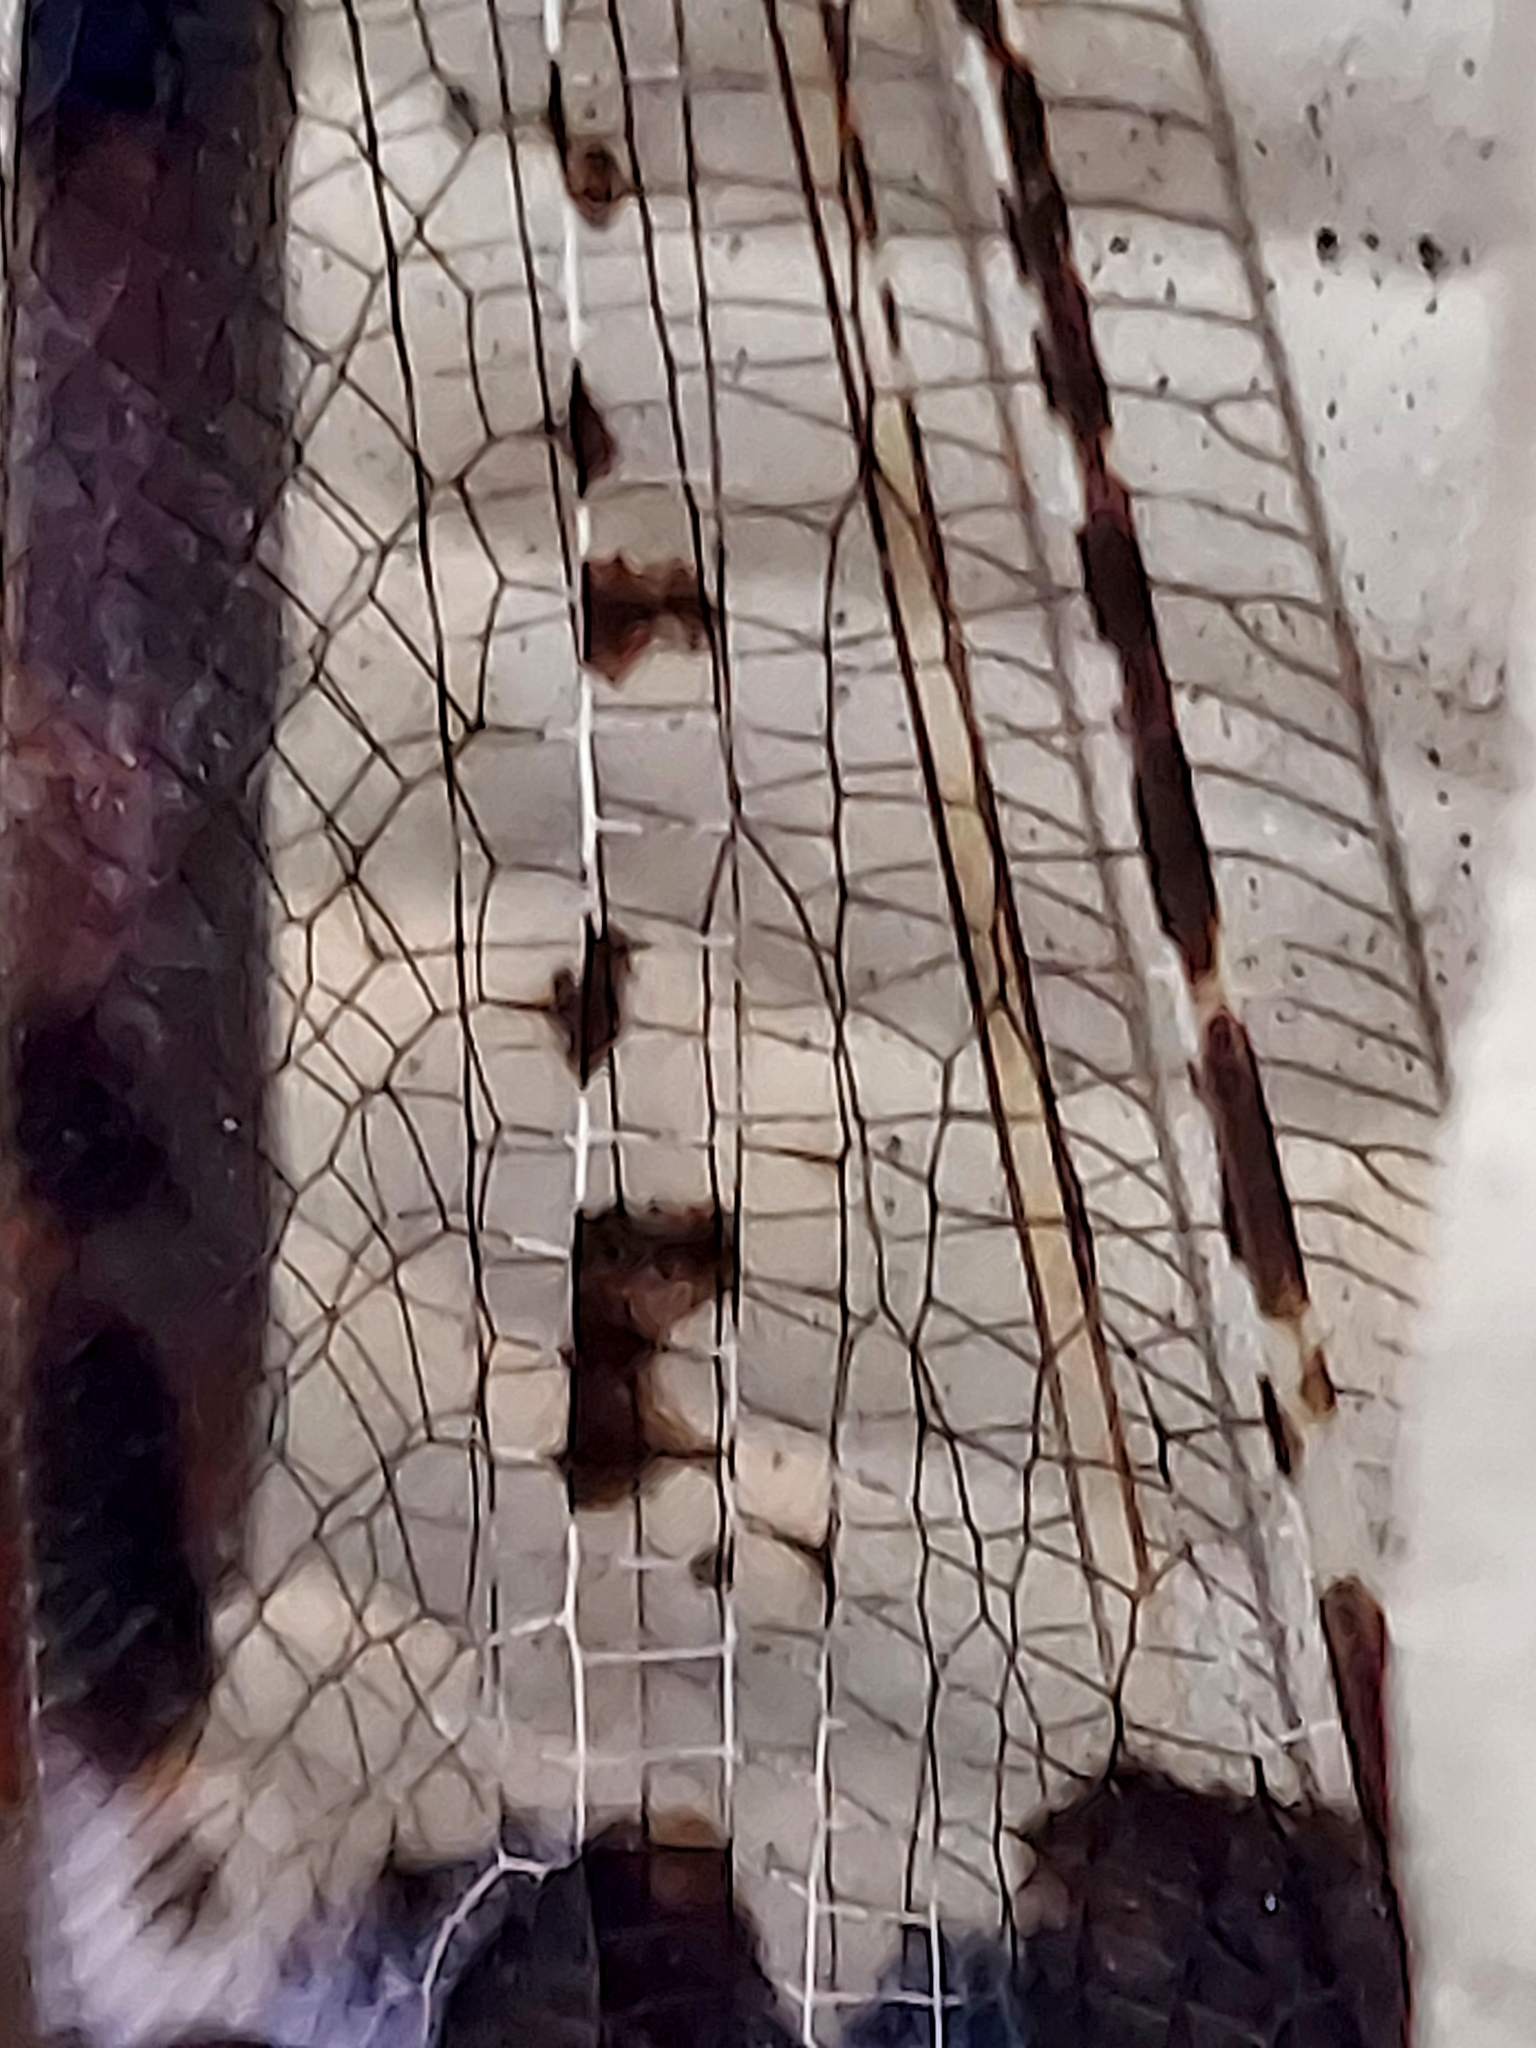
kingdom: Animalia
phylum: Arthropoda
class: Insecta
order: Neuroptera
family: Myrmeleontidae
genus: Glenurus
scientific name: Glenurus gratus
